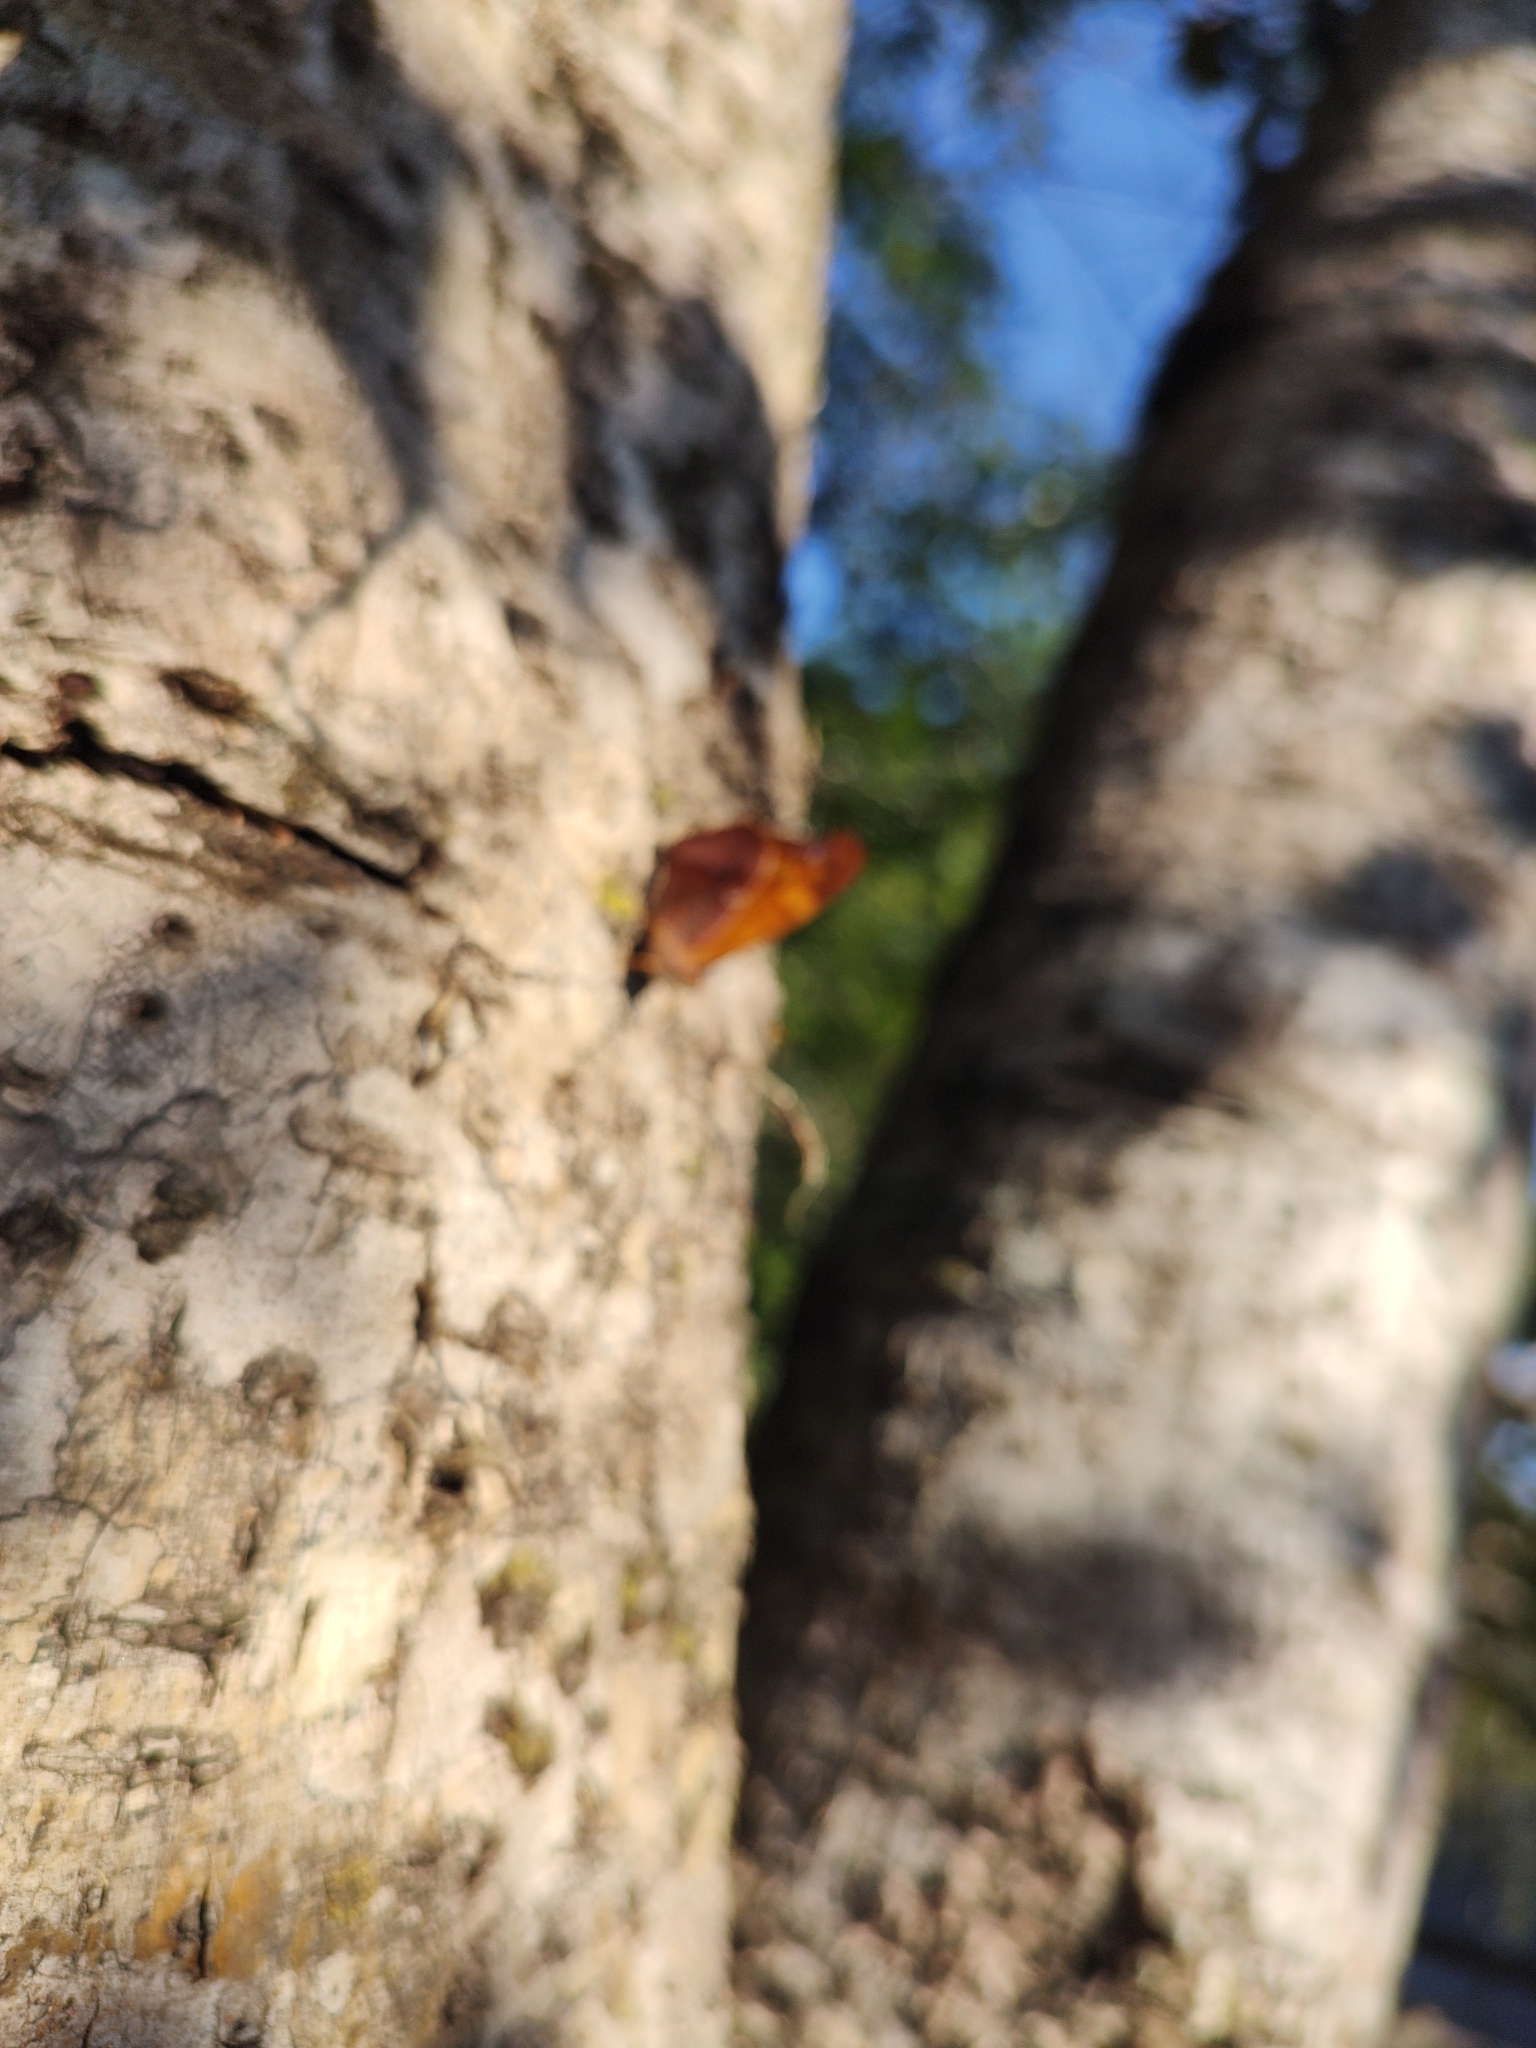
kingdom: Animalia
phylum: Arthropoda
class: Insecta
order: Lepidoptera
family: Nymphalidae
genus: Temenis
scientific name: Temenis laothoe
